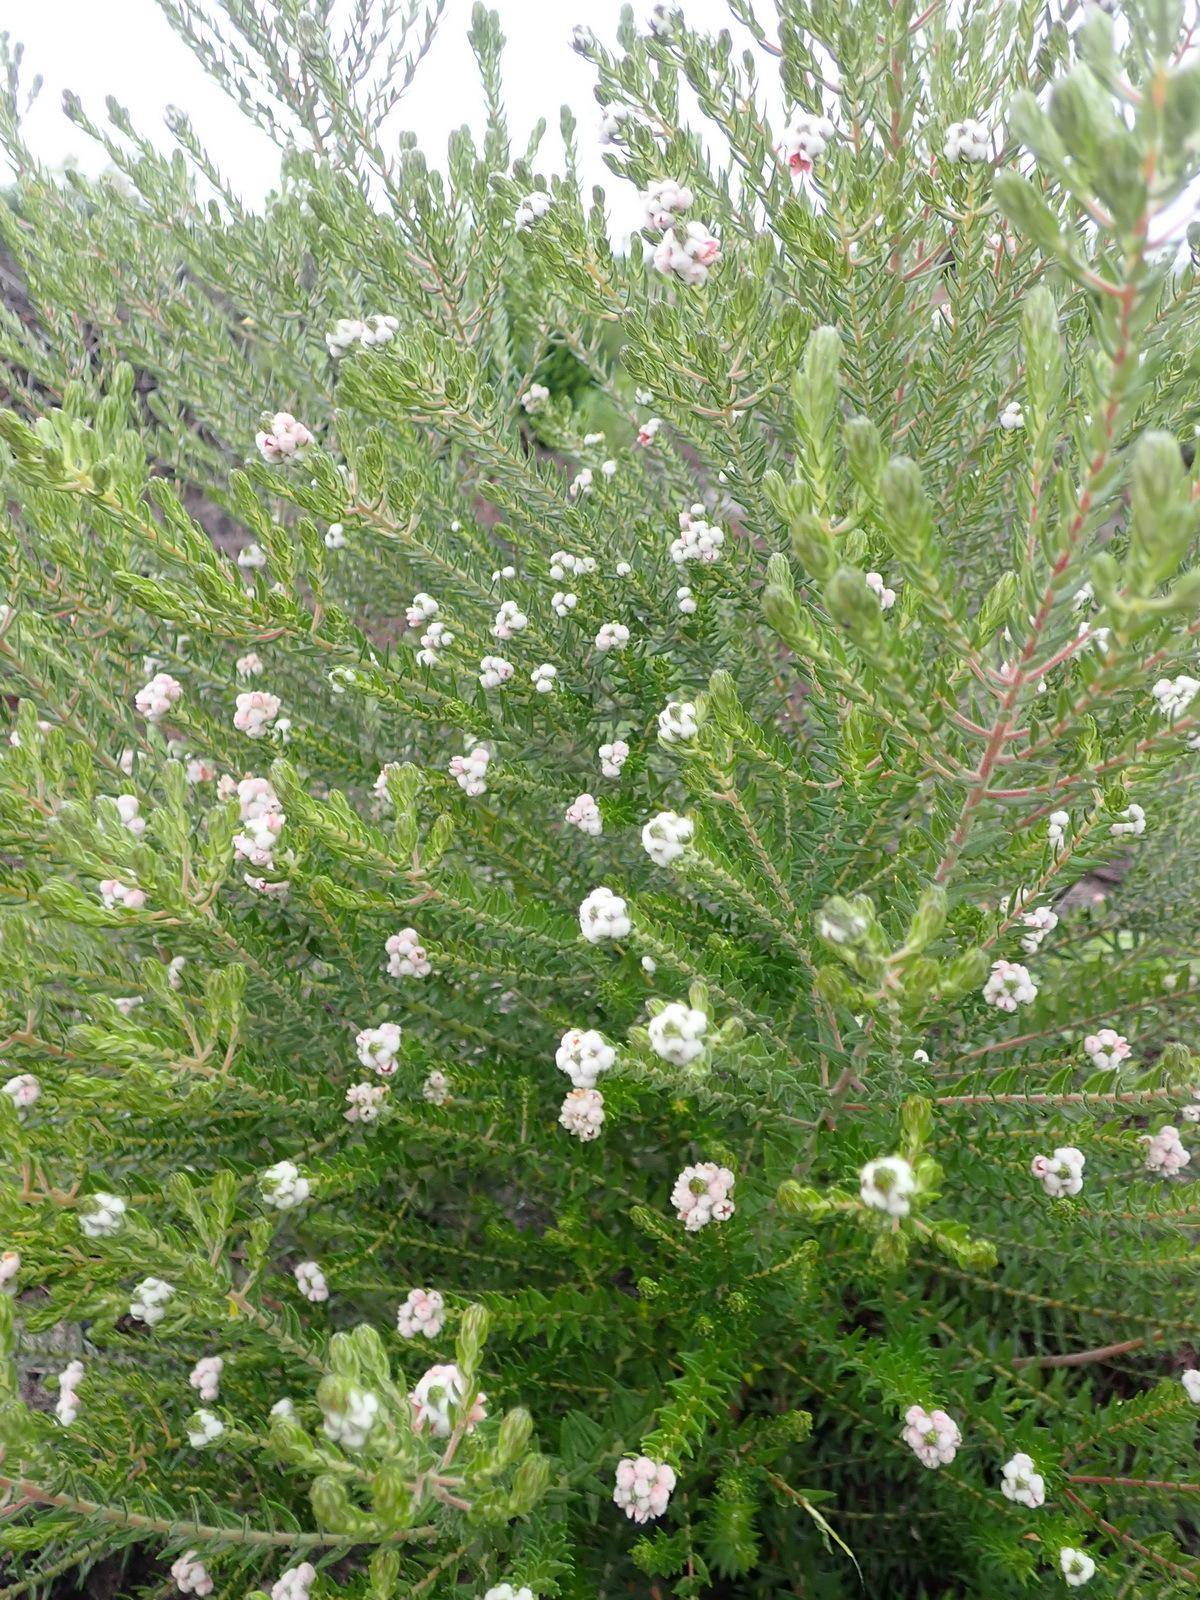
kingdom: Plantae
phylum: Tracheophyta
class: Magnoliopsida
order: Rosales
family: Rhamnaceae
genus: Phylica
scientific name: Phylica purpurea
